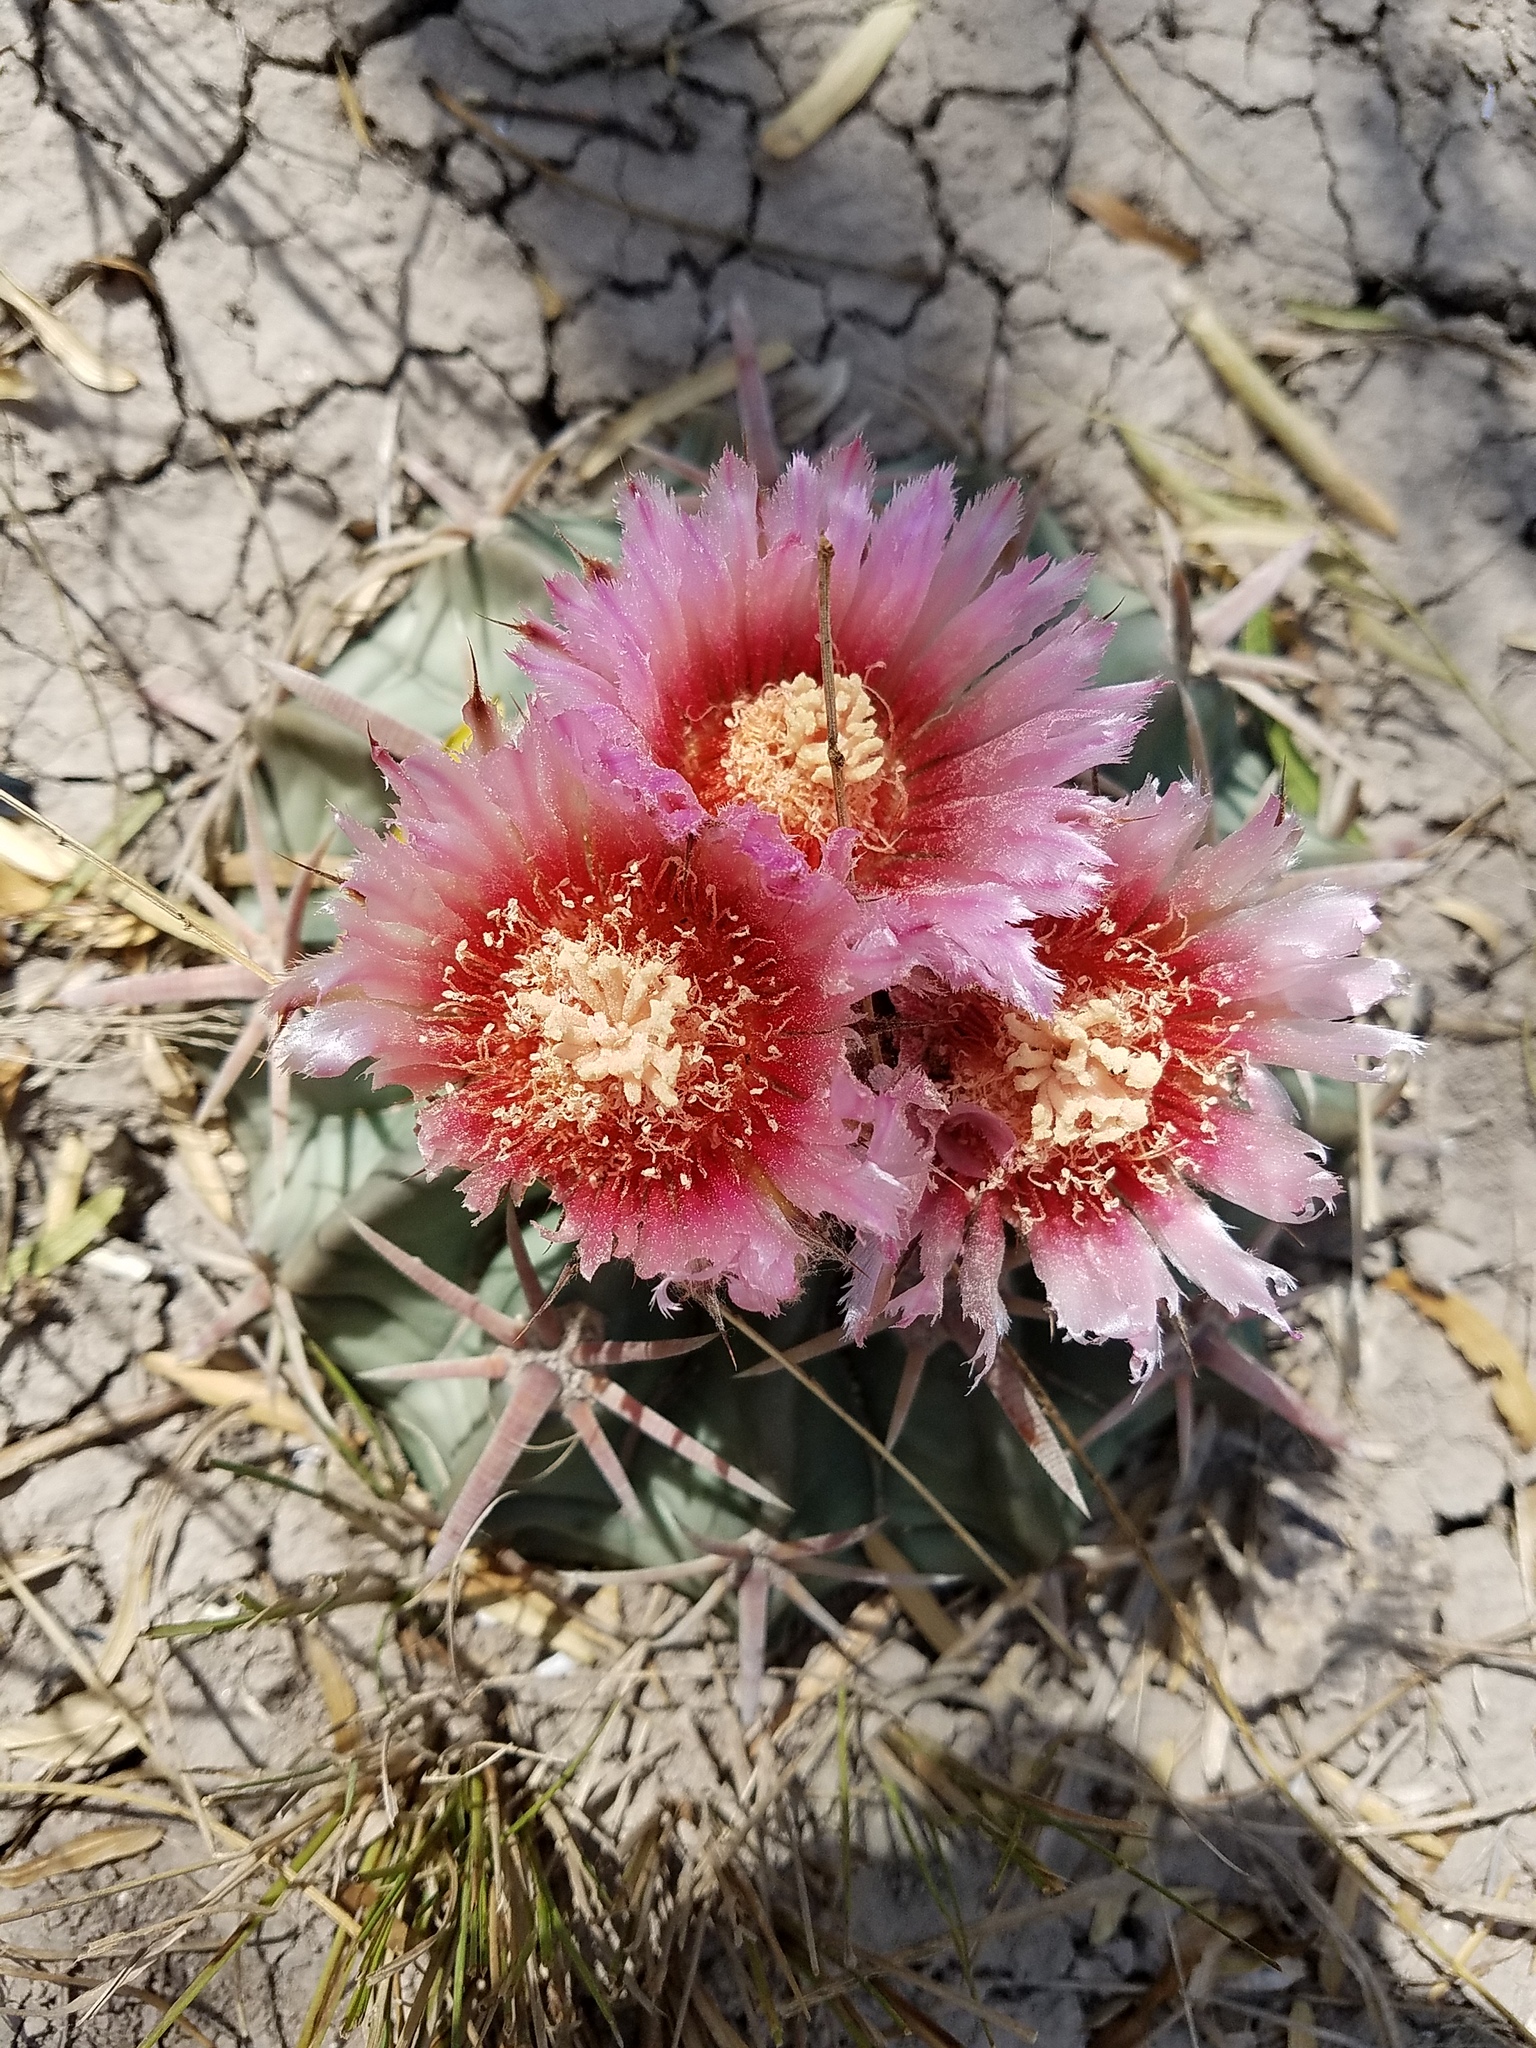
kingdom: Plantae
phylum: Tracheophyta
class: Magnoliopsida
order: Caryophyllales
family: Cactaceae
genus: Echinocactus
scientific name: Echinocactus texensis
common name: Devil's pincushion
